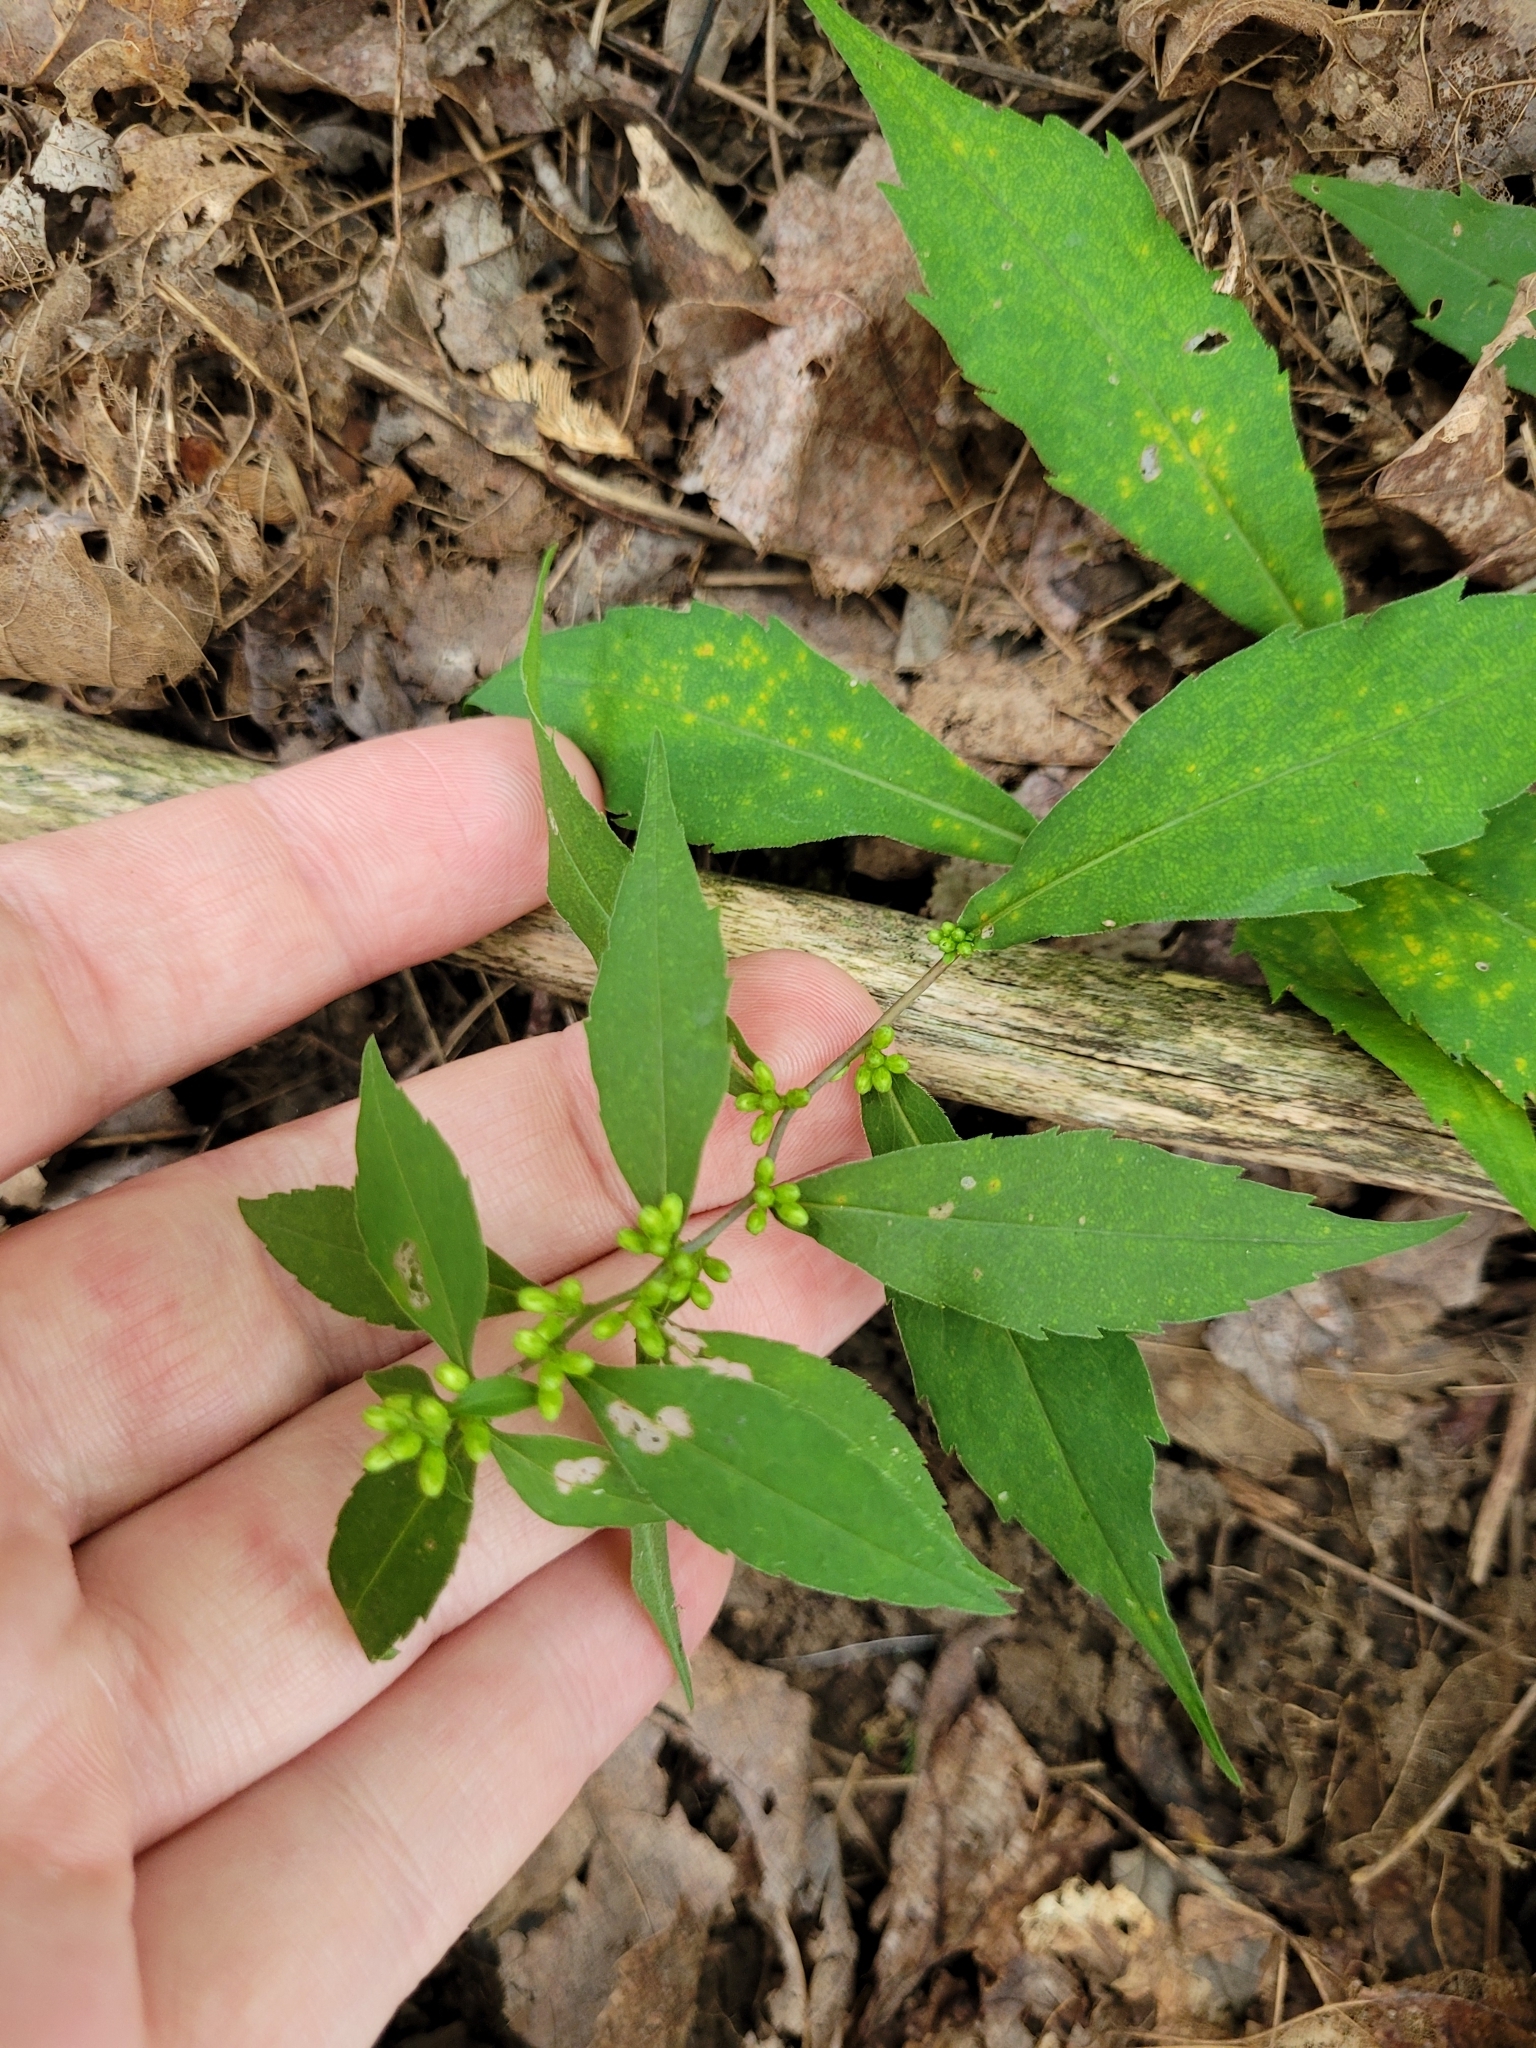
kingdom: Plantae
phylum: Tracheophyta
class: Magnoliopsida
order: Asterales
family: Asteraceae
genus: Solidago
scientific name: Solidago caesia
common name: Woodland goldenrod
